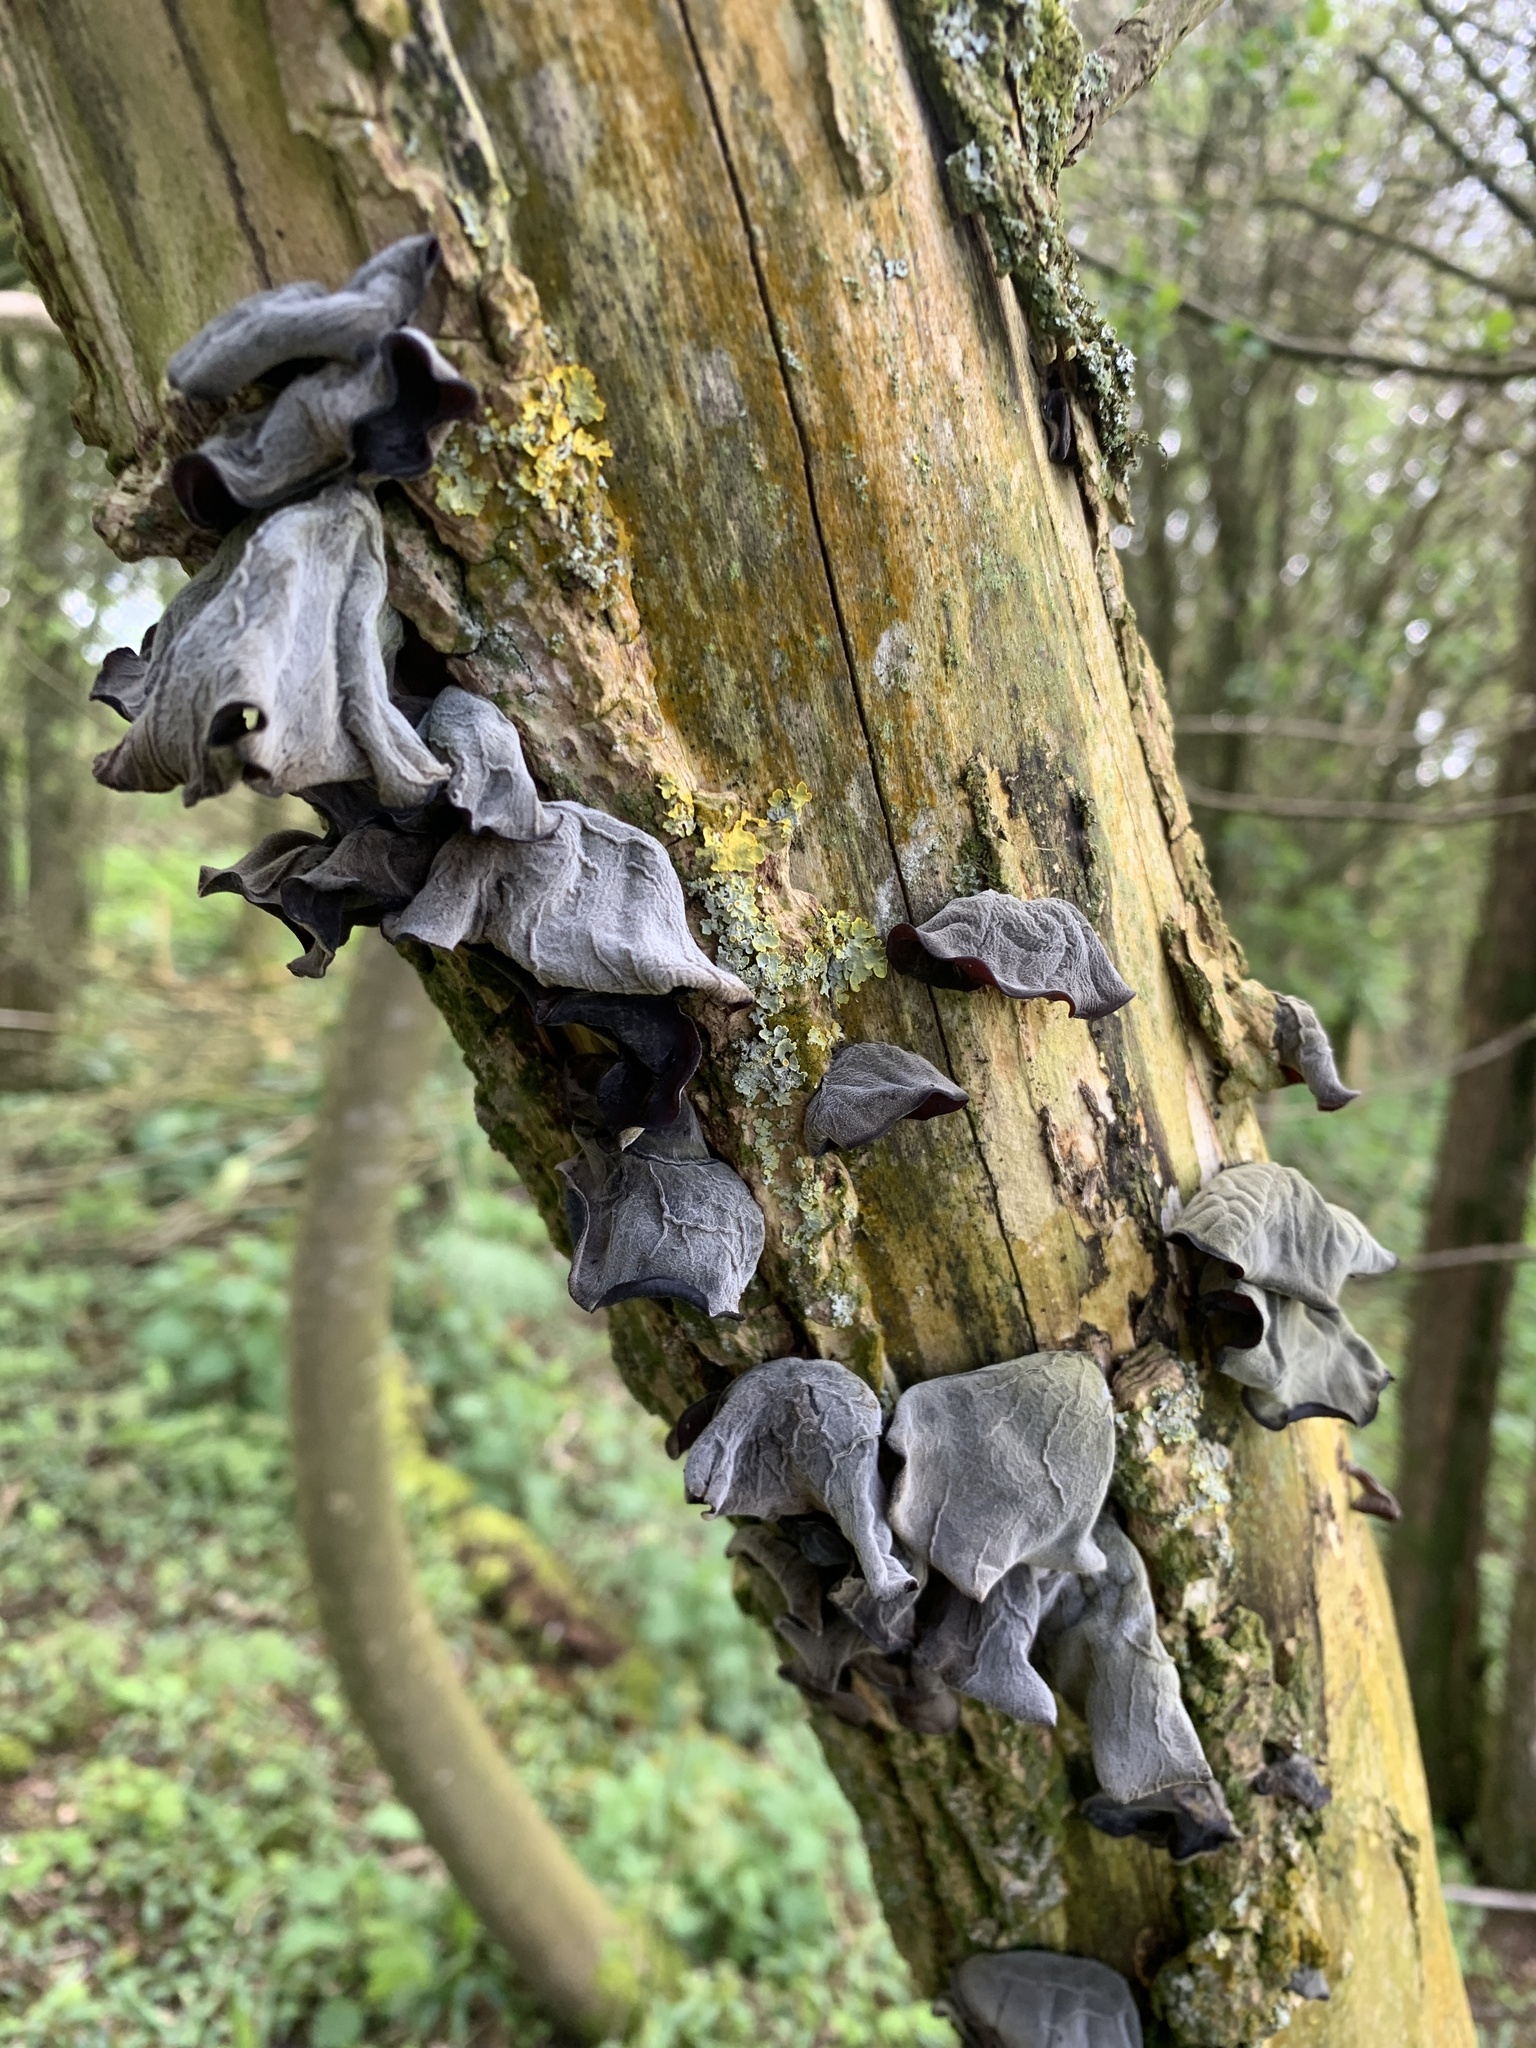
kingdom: Fungi
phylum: Basidiomycota
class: Agaricomycetes
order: Auriculariales
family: Auriculariaceae
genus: Auricularia
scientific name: Auricularia auricula-judae
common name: Jelly ear
